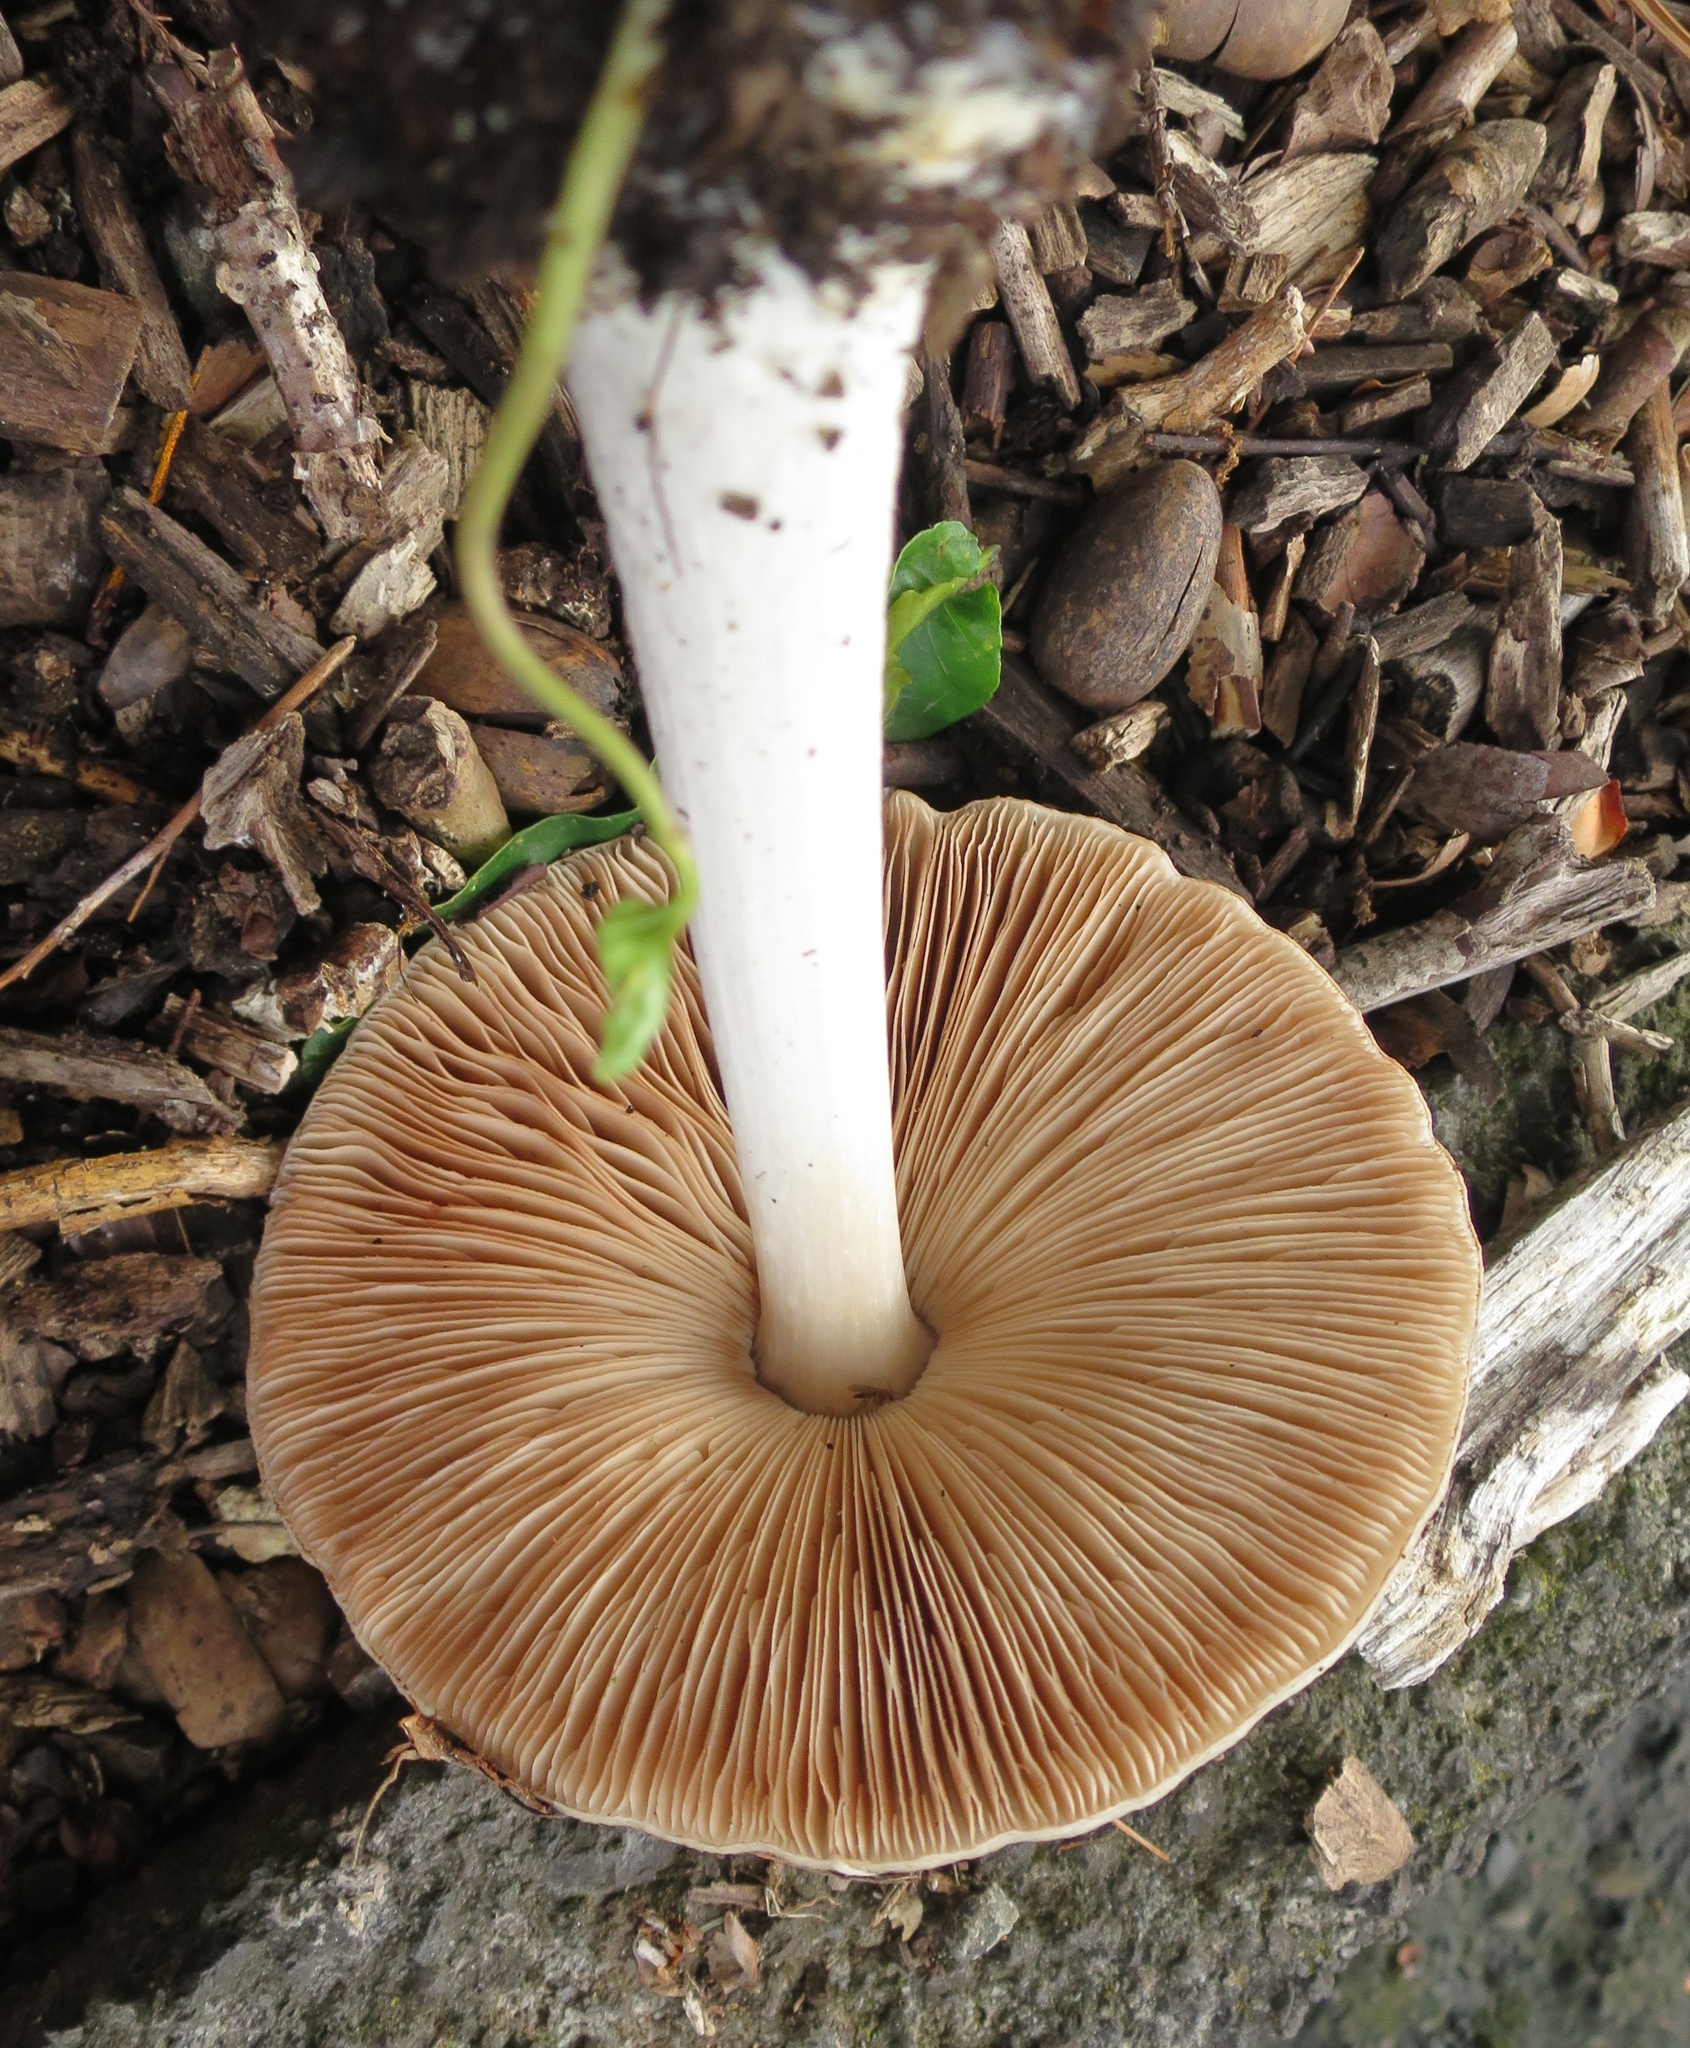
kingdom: Fungi
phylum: Basidiomycota
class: Agaricomycetes
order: Agaricales
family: Pluteaceae
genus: Volvopluteus
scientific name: Volvopluteus gloiocephalus
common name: Stubble rosegill
